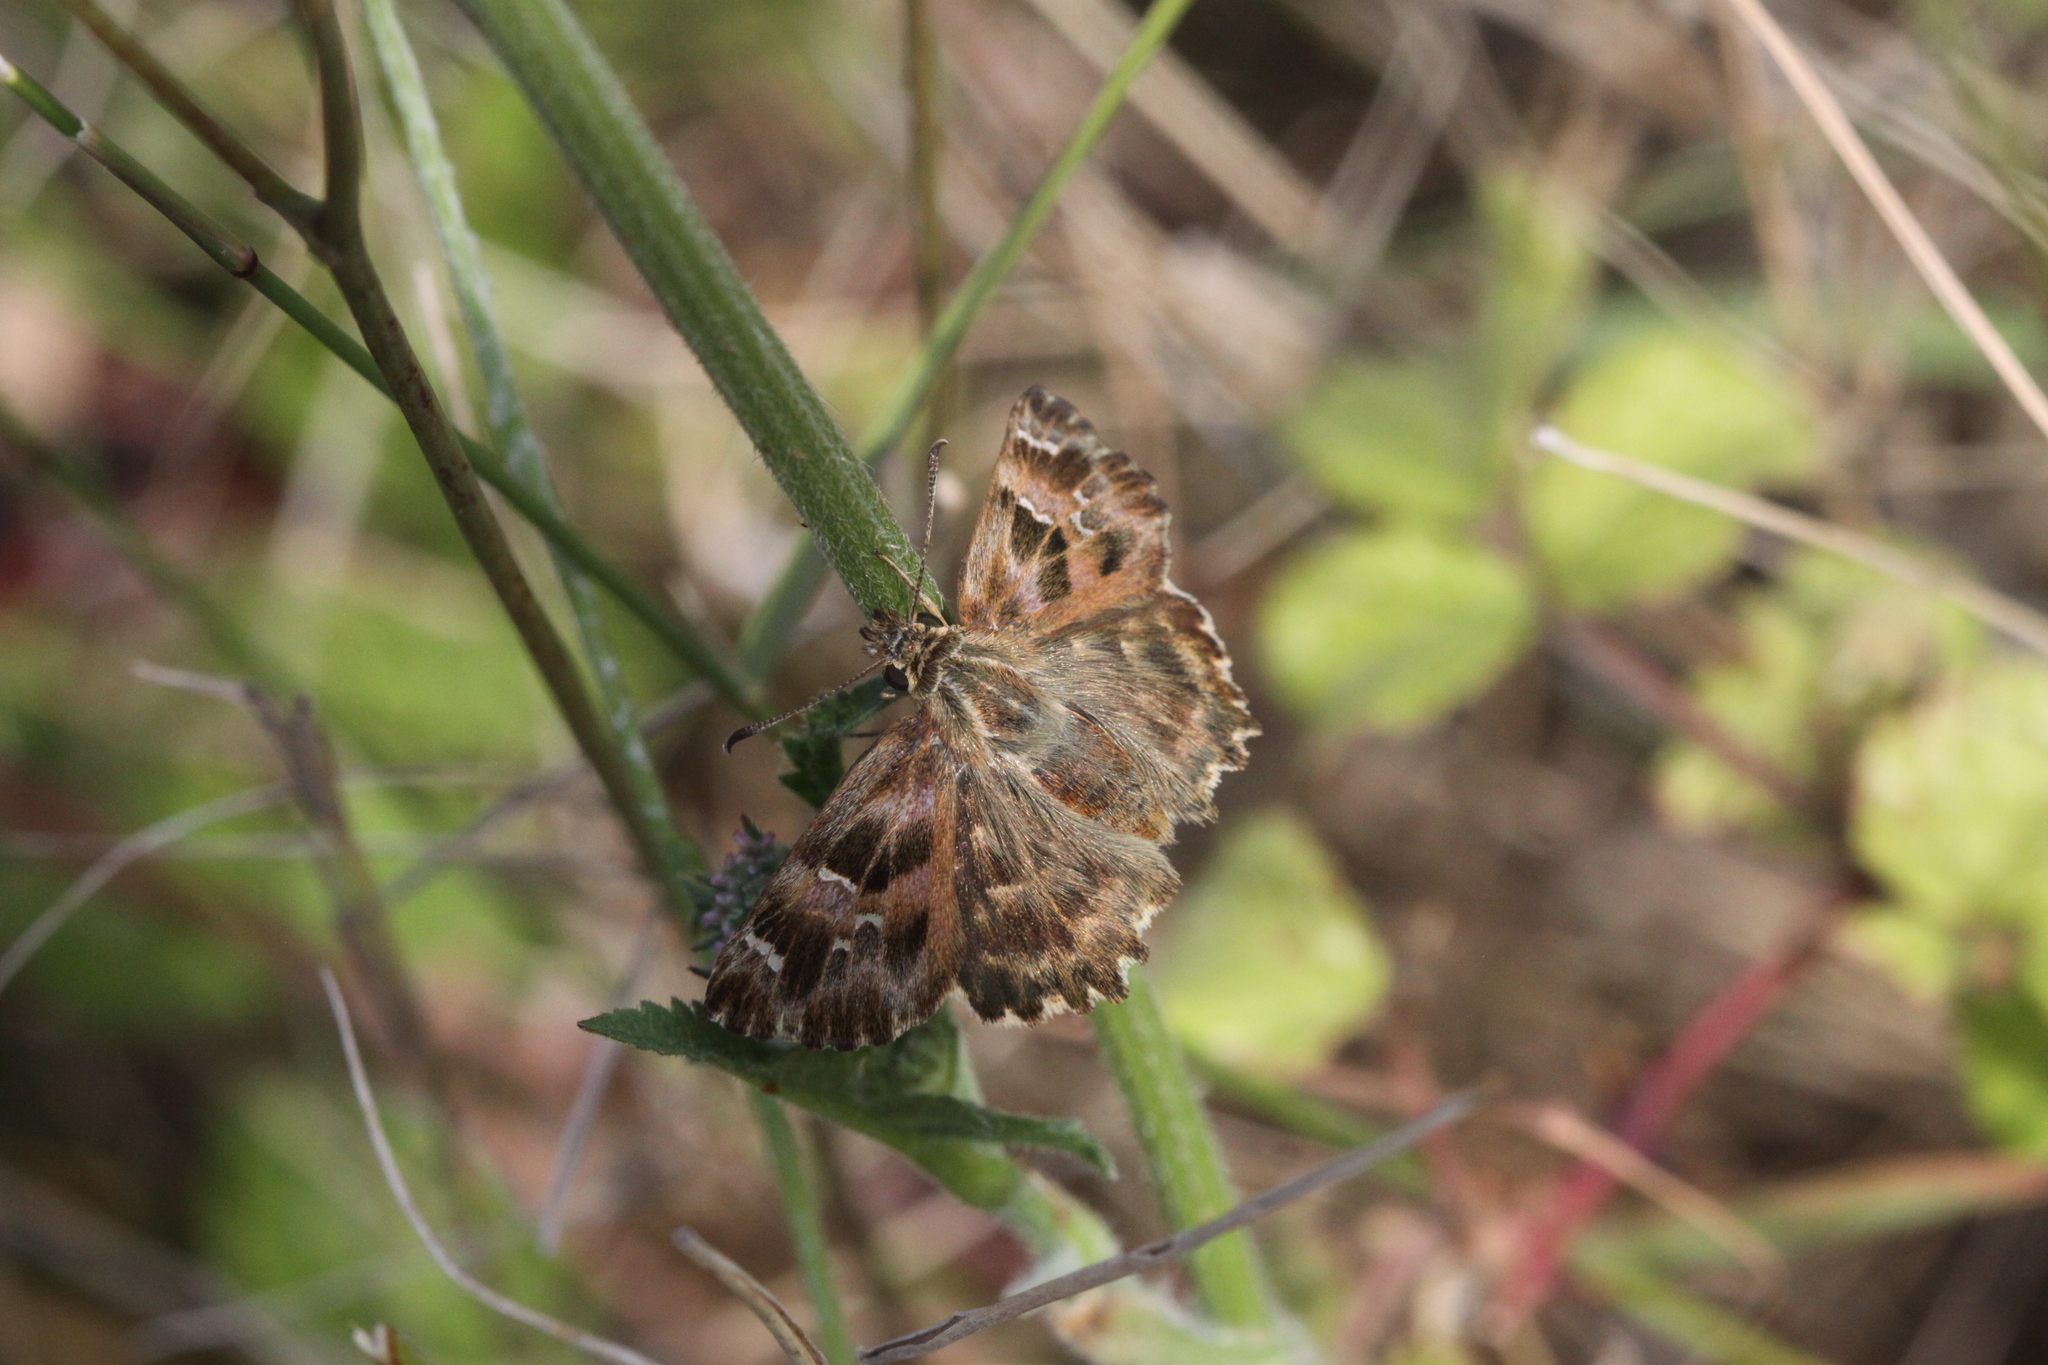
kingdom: Animalia
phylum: Arthropoda
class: Insecta
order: Lepidoptera
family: Hesperiidae
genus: Carcharodus
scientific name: Carcharodus alceae
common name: Mallow skipper
